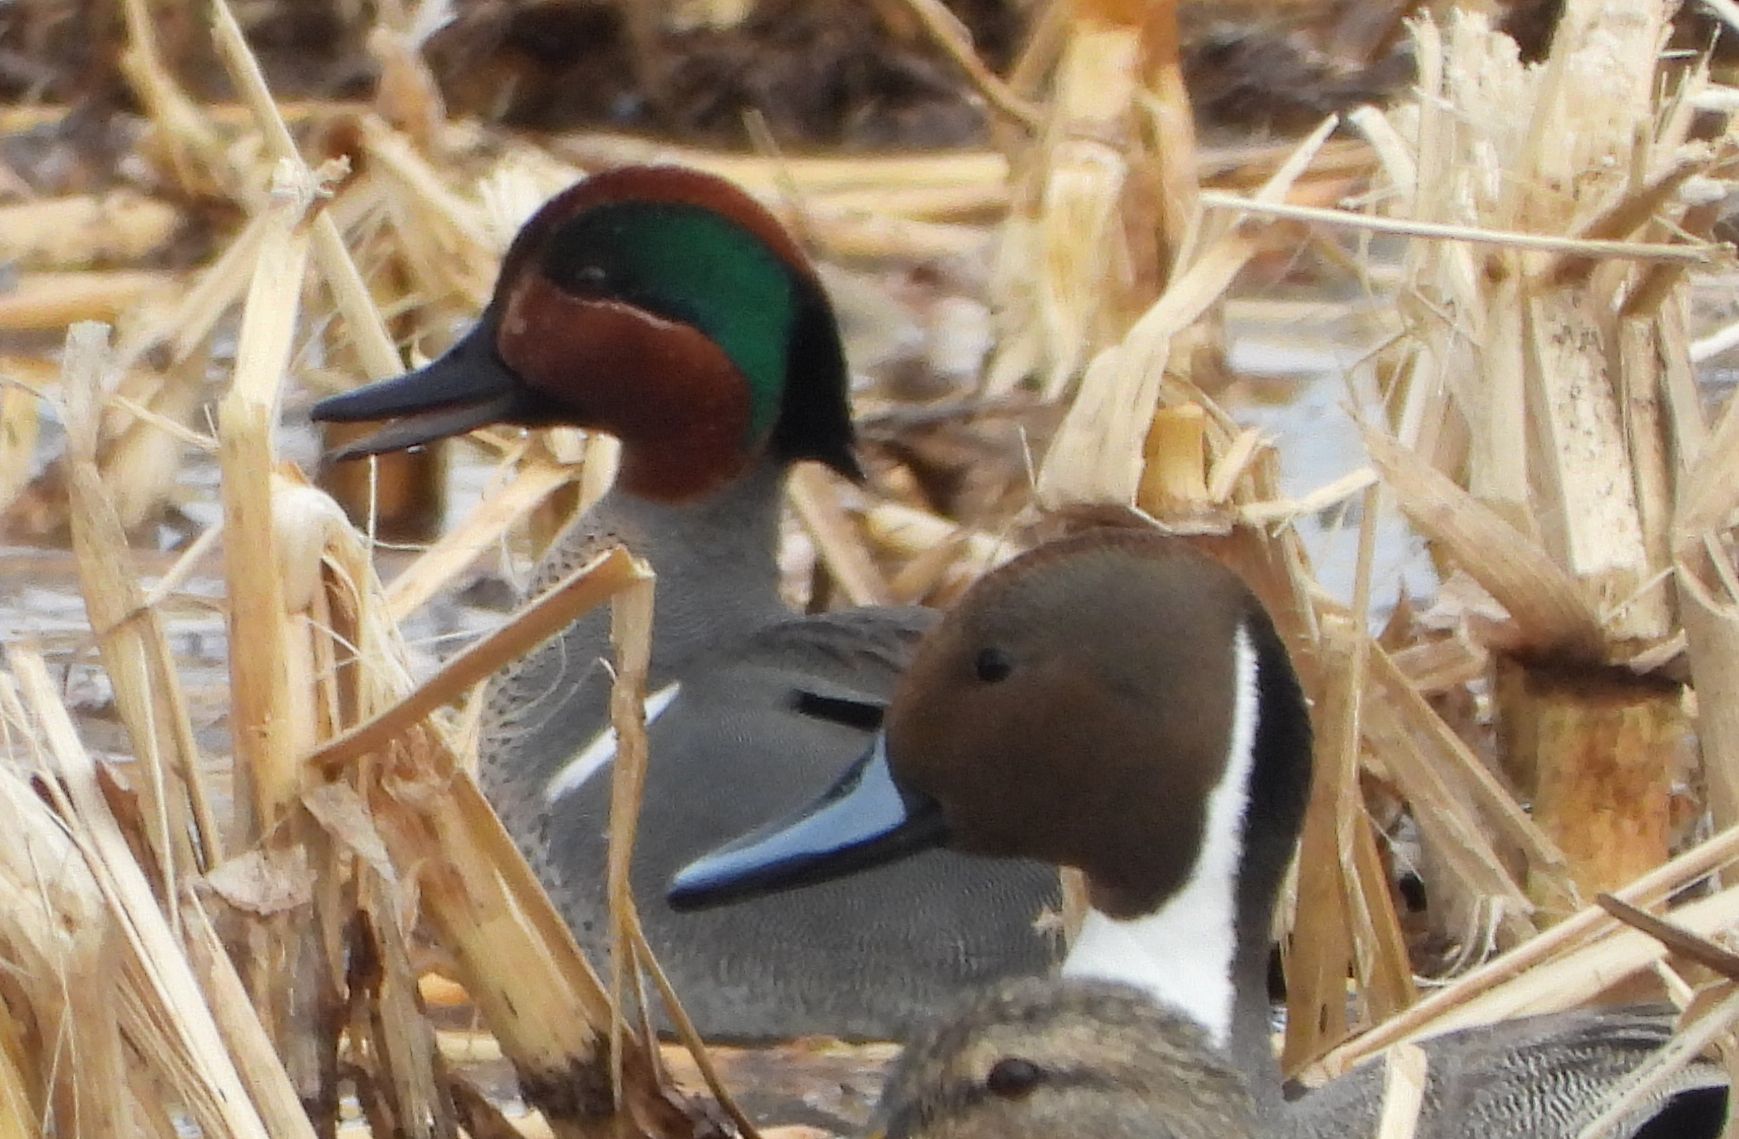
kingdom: Animalia
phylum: Chordata
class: Aves
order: Anseriformes
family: Anatidae
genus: Anas
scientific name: Anas crecca
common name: Eurasian teal
